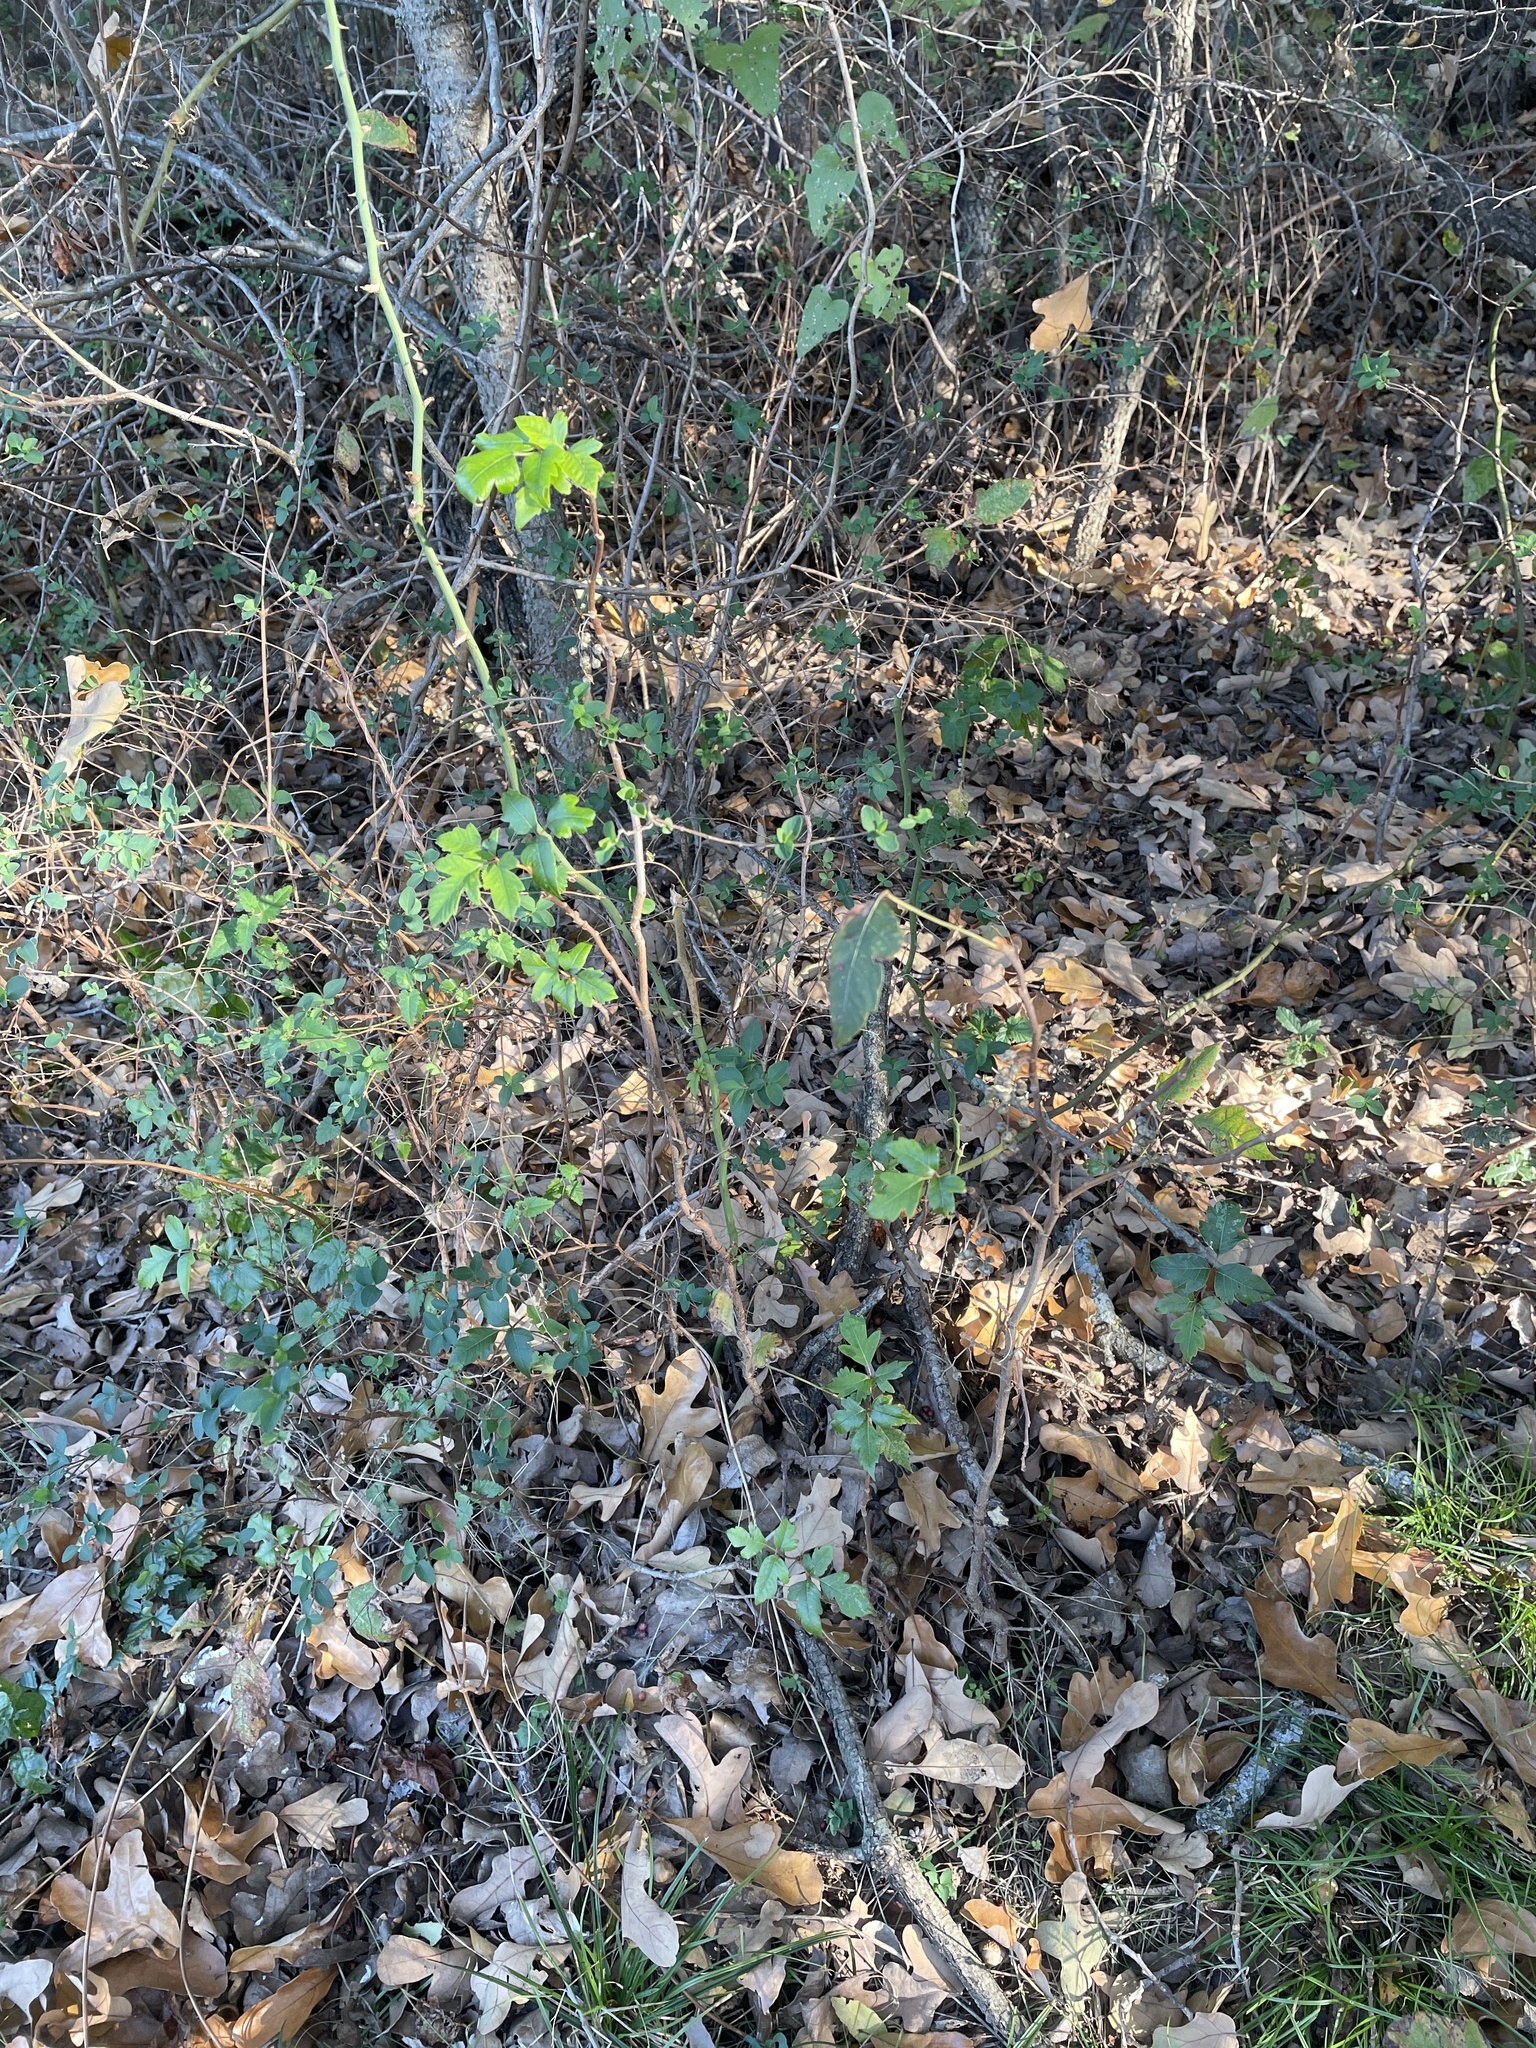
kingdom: Plantae
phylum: Tracheophyta
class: Magnoliopsida
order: Sapindales
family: Anacardiaceae
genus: Toxicodendron
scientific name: Toxicodendron radicans
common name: Poison ivy
